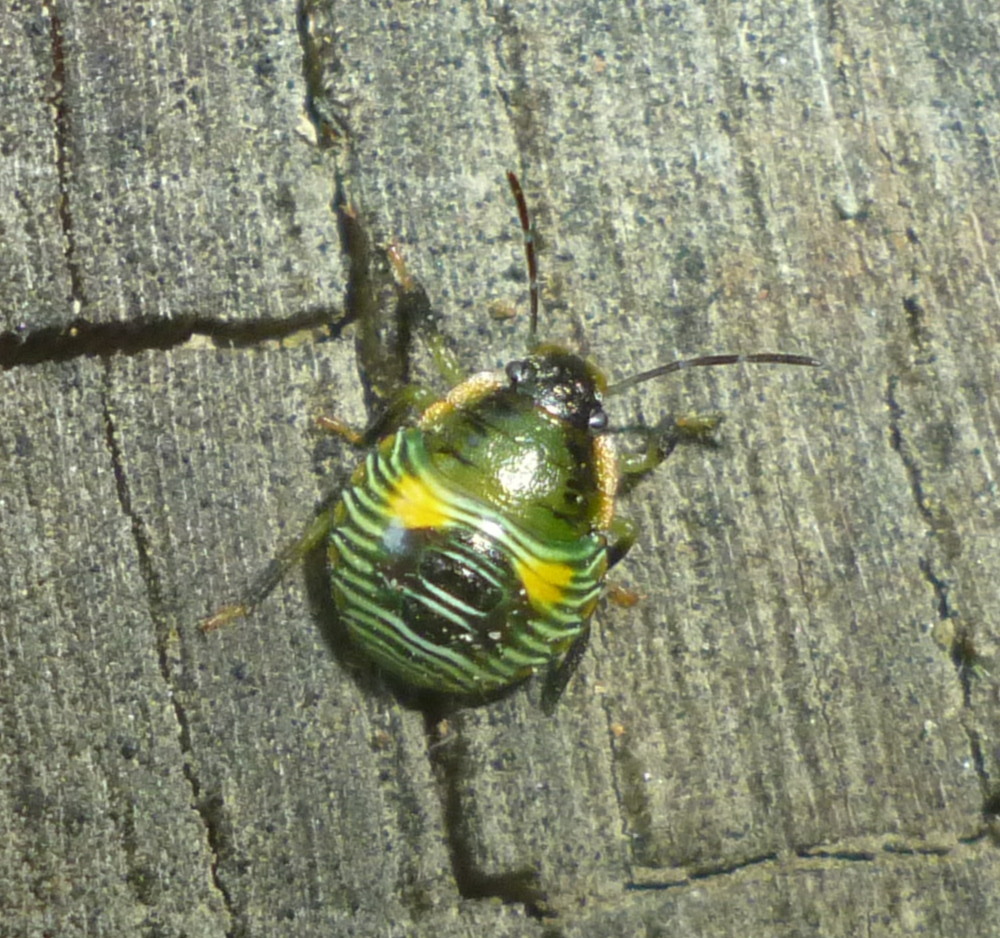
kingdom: Animalia
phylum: Arthropoda
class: Insecta
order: Hemiptera
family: Pentatomidae
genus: Chinavia
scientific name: Chinavia hilaris
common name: Green stink bug
